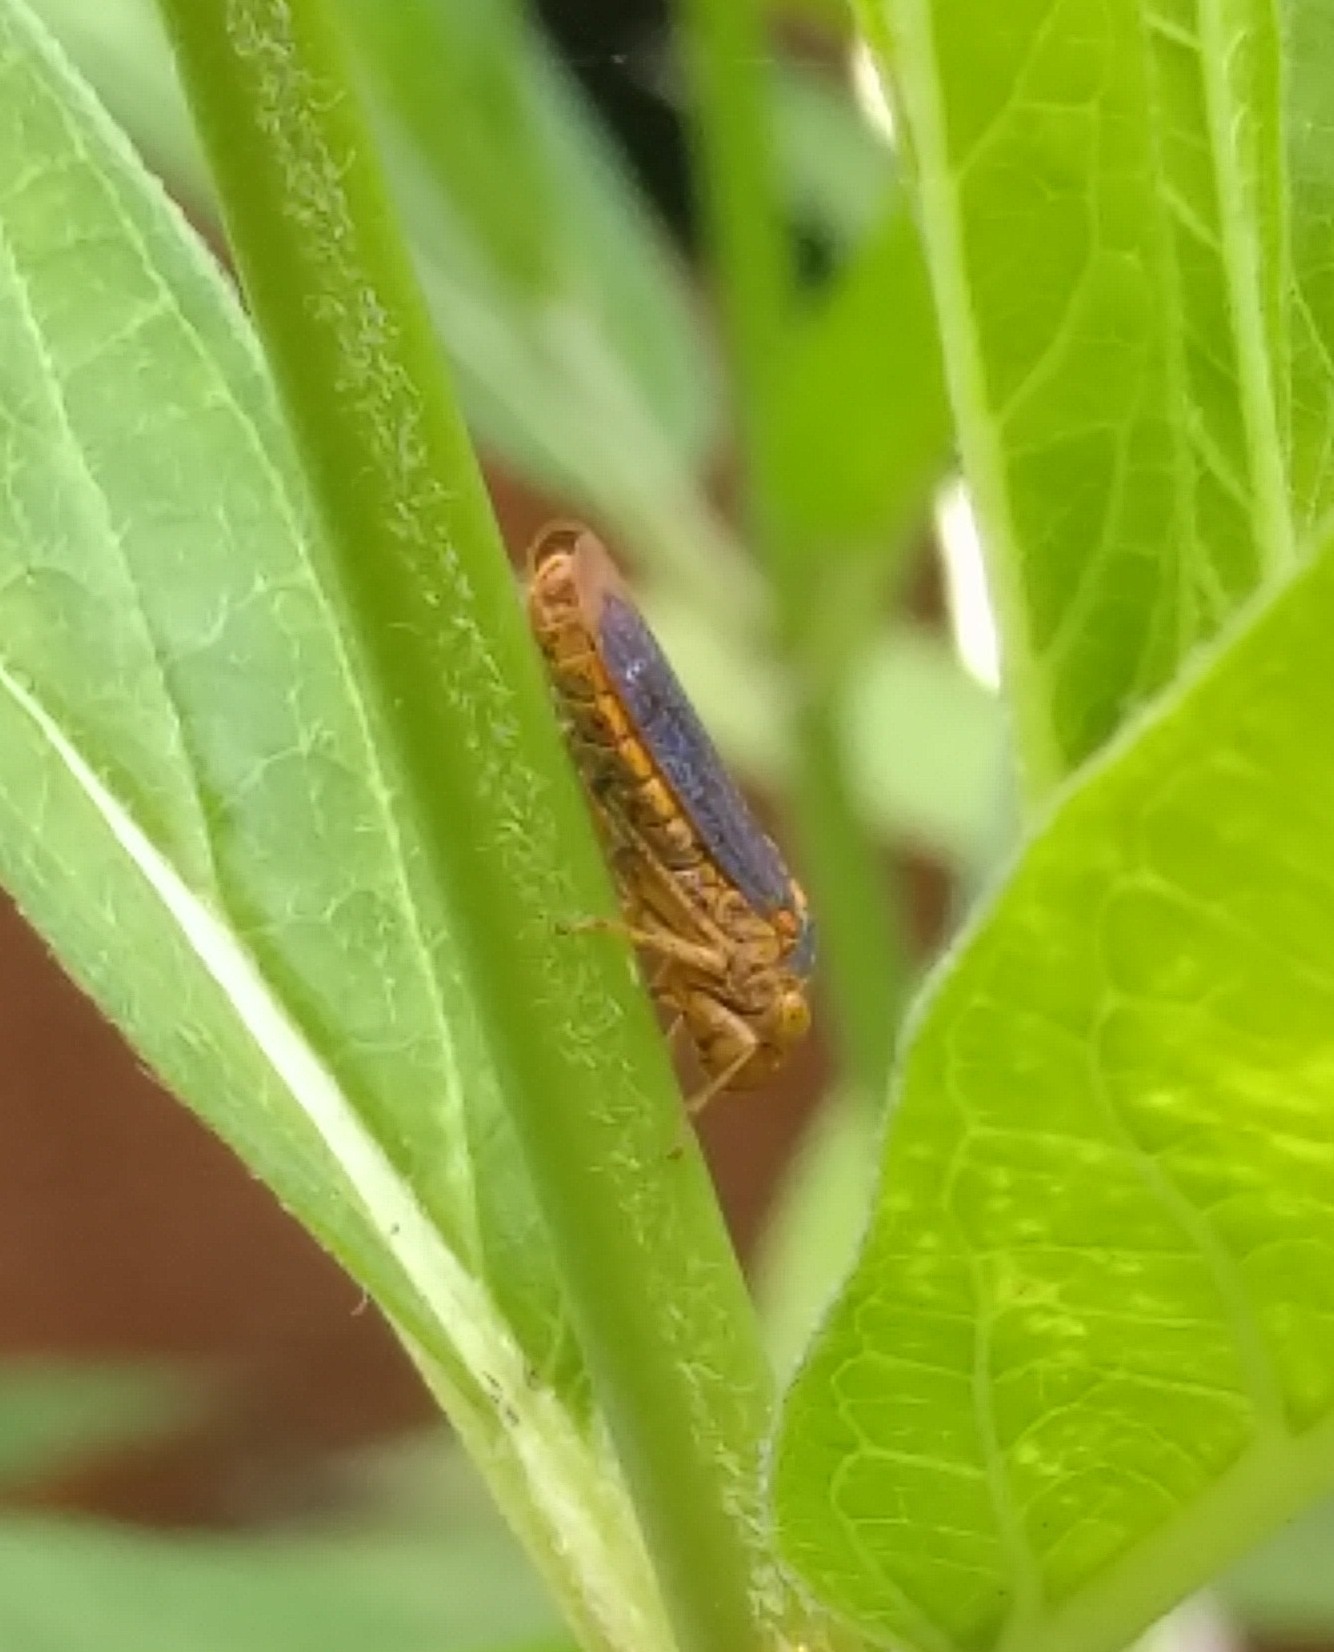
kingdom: Animalia
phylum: Arthropoda
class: Insecta
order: Hemiptera
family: Cicadellidae
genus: Oncometopia
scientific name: Oncometopia orbona
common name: Broad-headed sharpshooter
